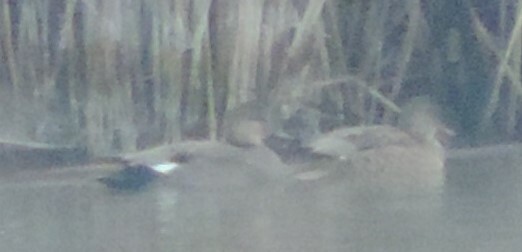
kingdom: Animalia
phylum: Chordata
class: Aves
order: Anseriformes
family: Anatidae
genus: Mareca
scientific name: Mareca strepera
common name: Gadwall
